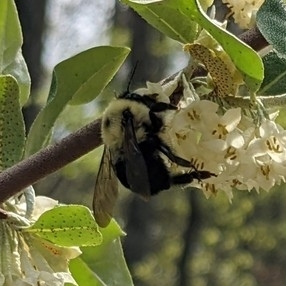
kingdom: Animalia
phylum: Arthropoda
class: Insecta
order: Hymenoptera
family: Apidae
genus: Bombus
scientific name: Bombus bimaculatus
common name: Two-spotted bumble bee
